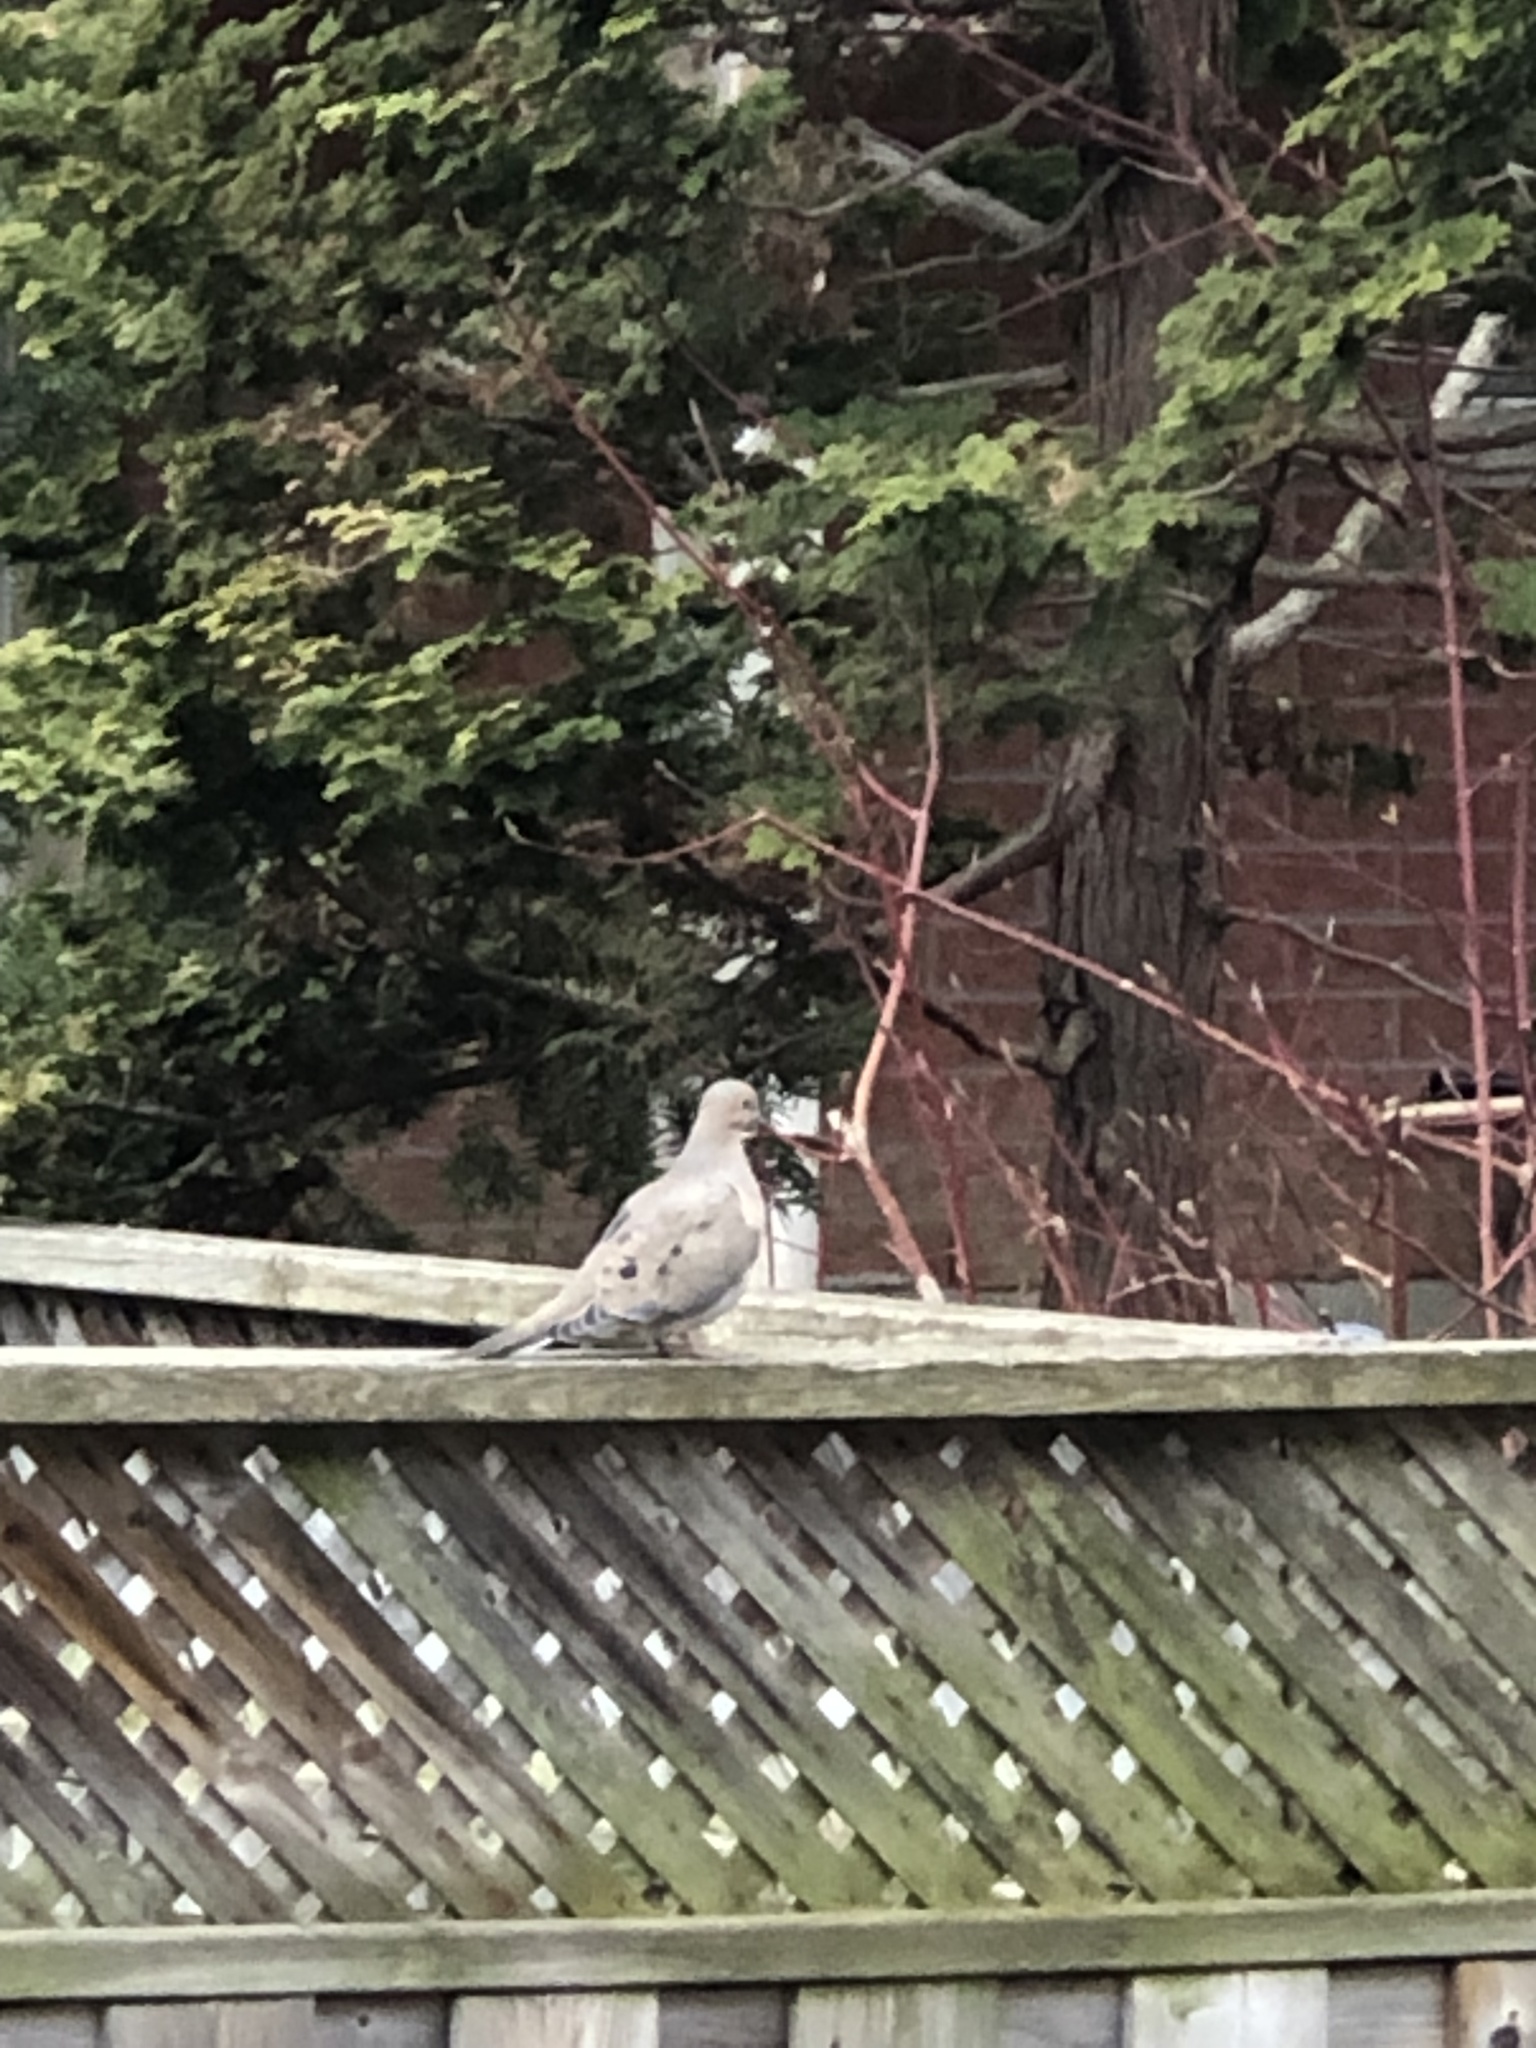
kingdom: Animalia
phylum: Chordata
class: Aves
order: Columbiformes
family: Columbidae
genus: Zenaida
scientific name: Zenaida macroura
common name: Mourning dove
